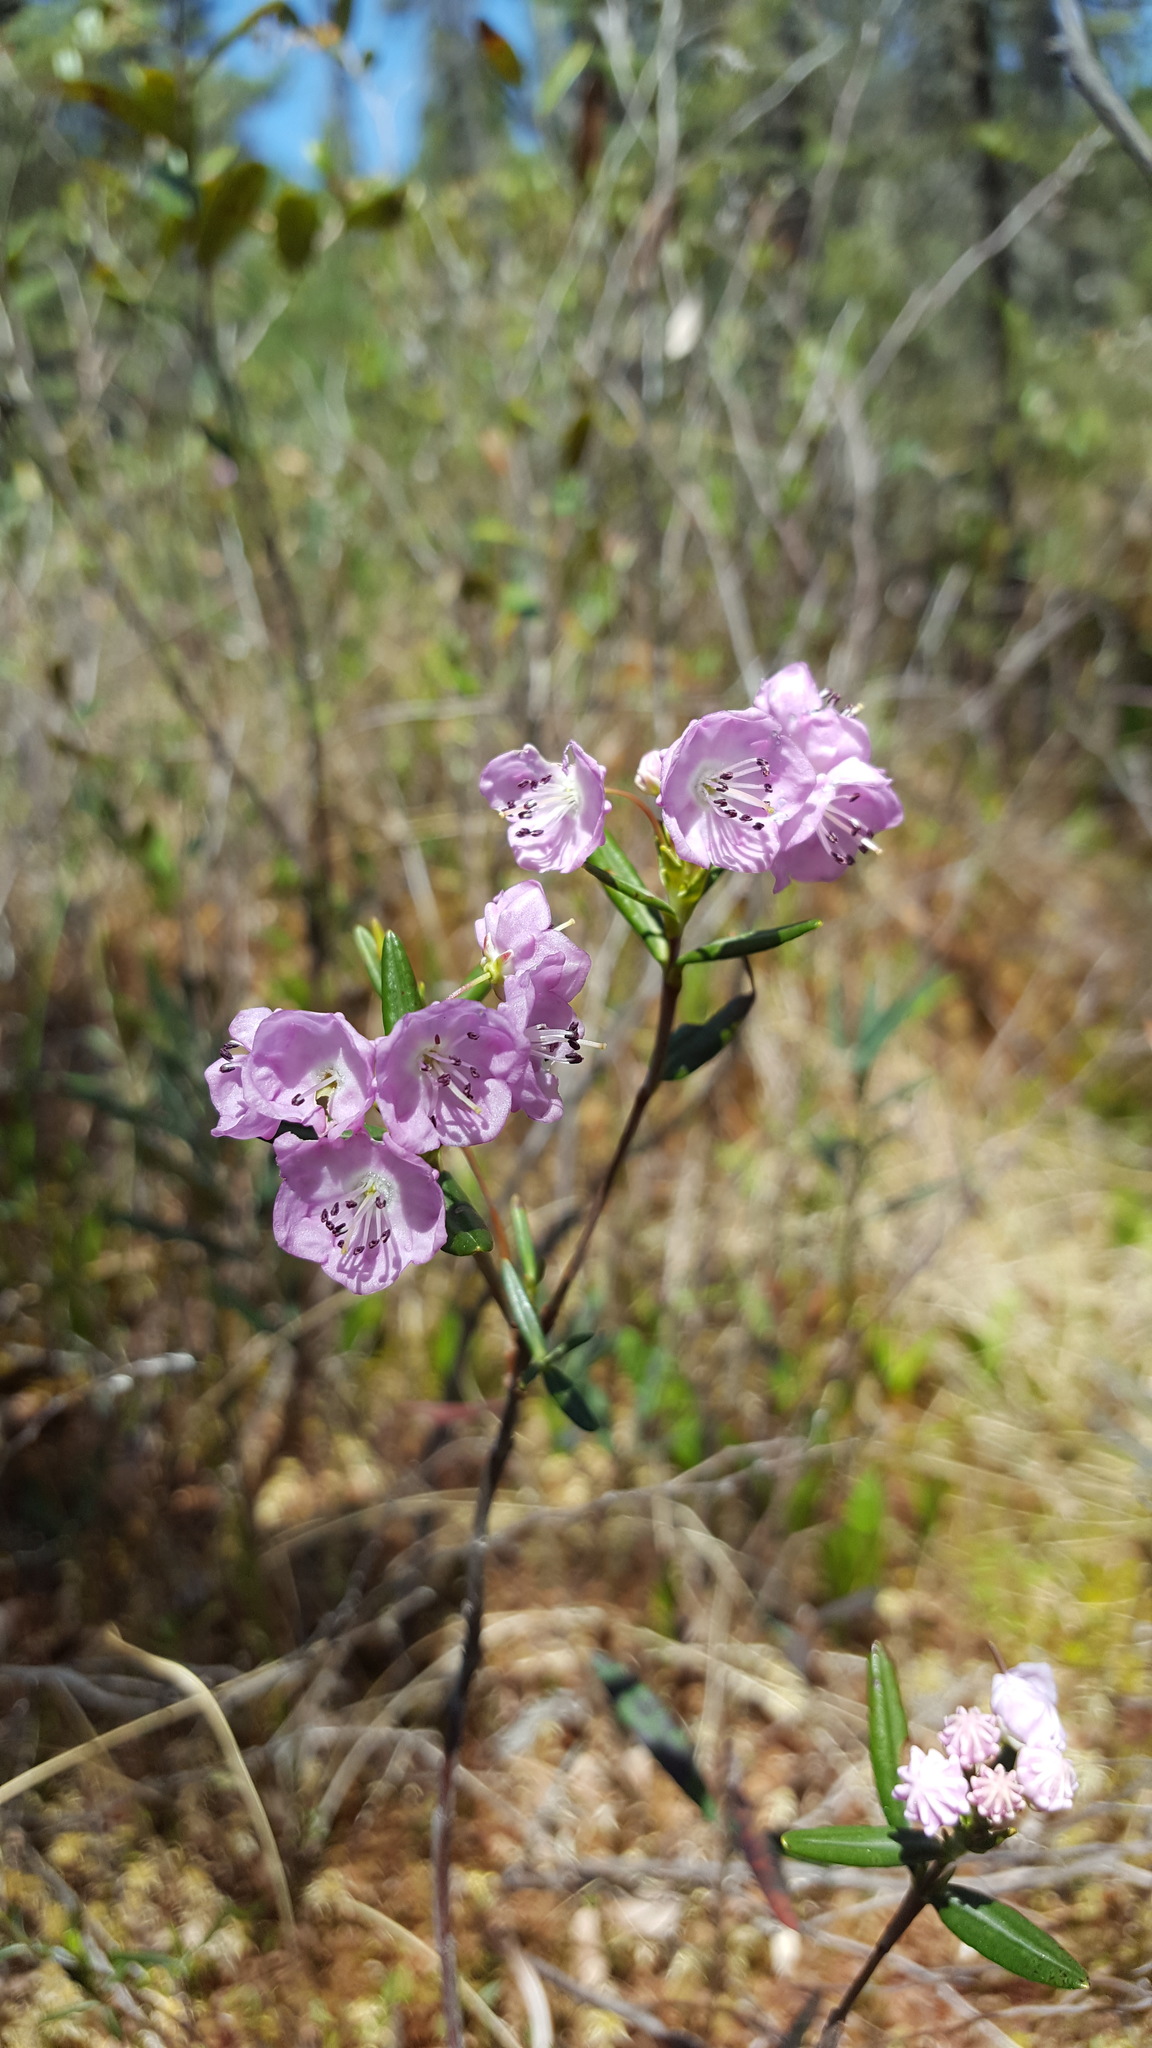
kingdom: Plantae
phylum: Tracheophyta
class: Magnoliopsida
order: Ericales
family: Ericaceae
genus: Kalmia
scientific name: Kalmia polifolia
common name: Bog-laurel
